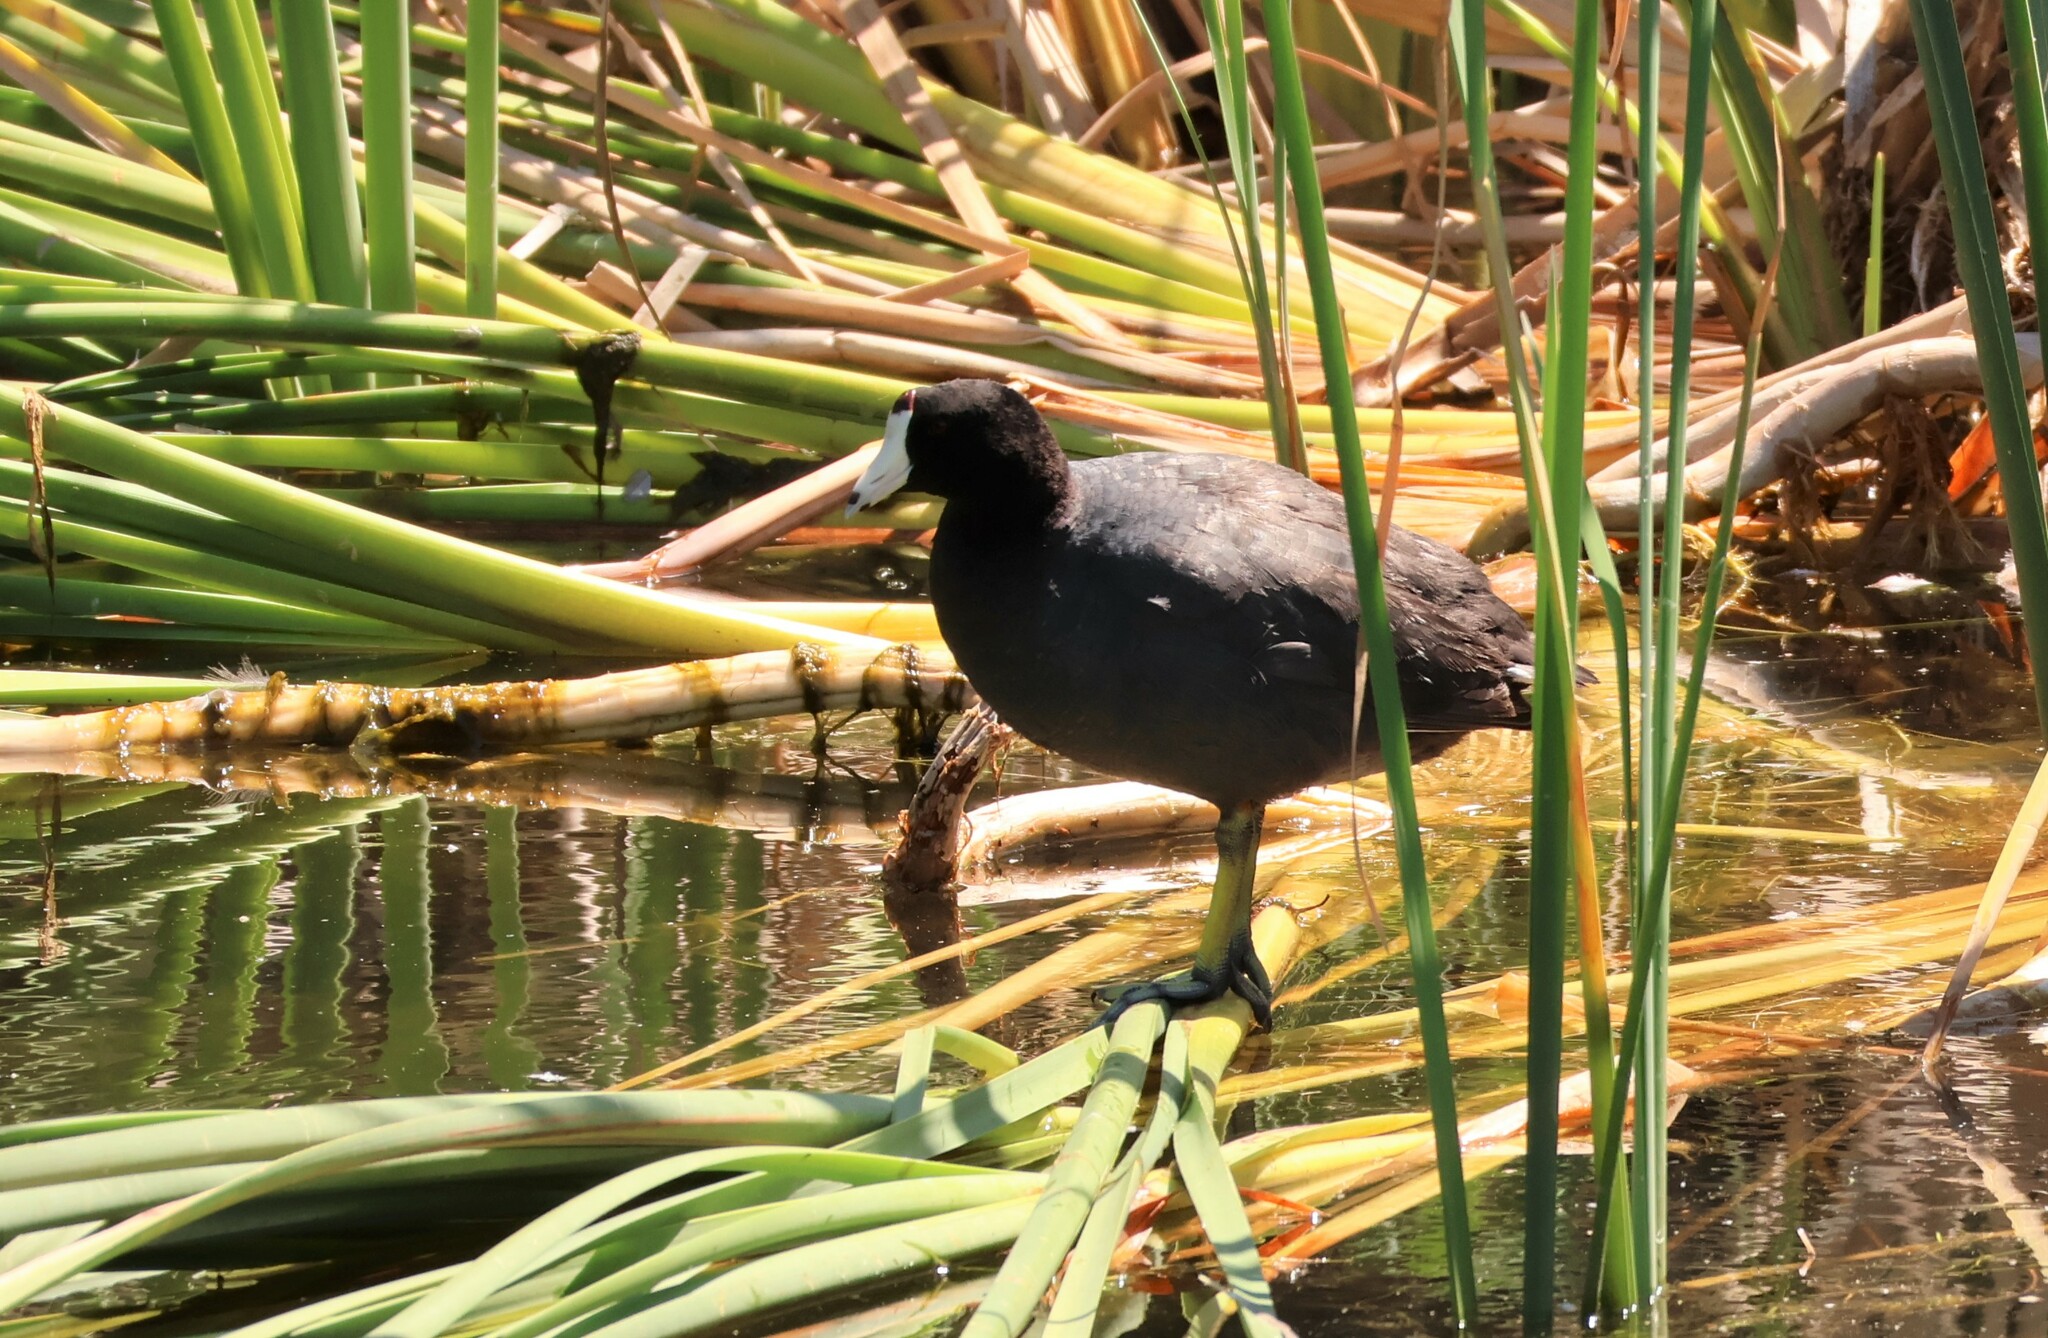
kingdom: Animalia
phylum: Chordata
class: Aves
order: Gruiformes
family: Rallidae
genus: Fulica
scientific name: Fulica americana
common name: American coot
